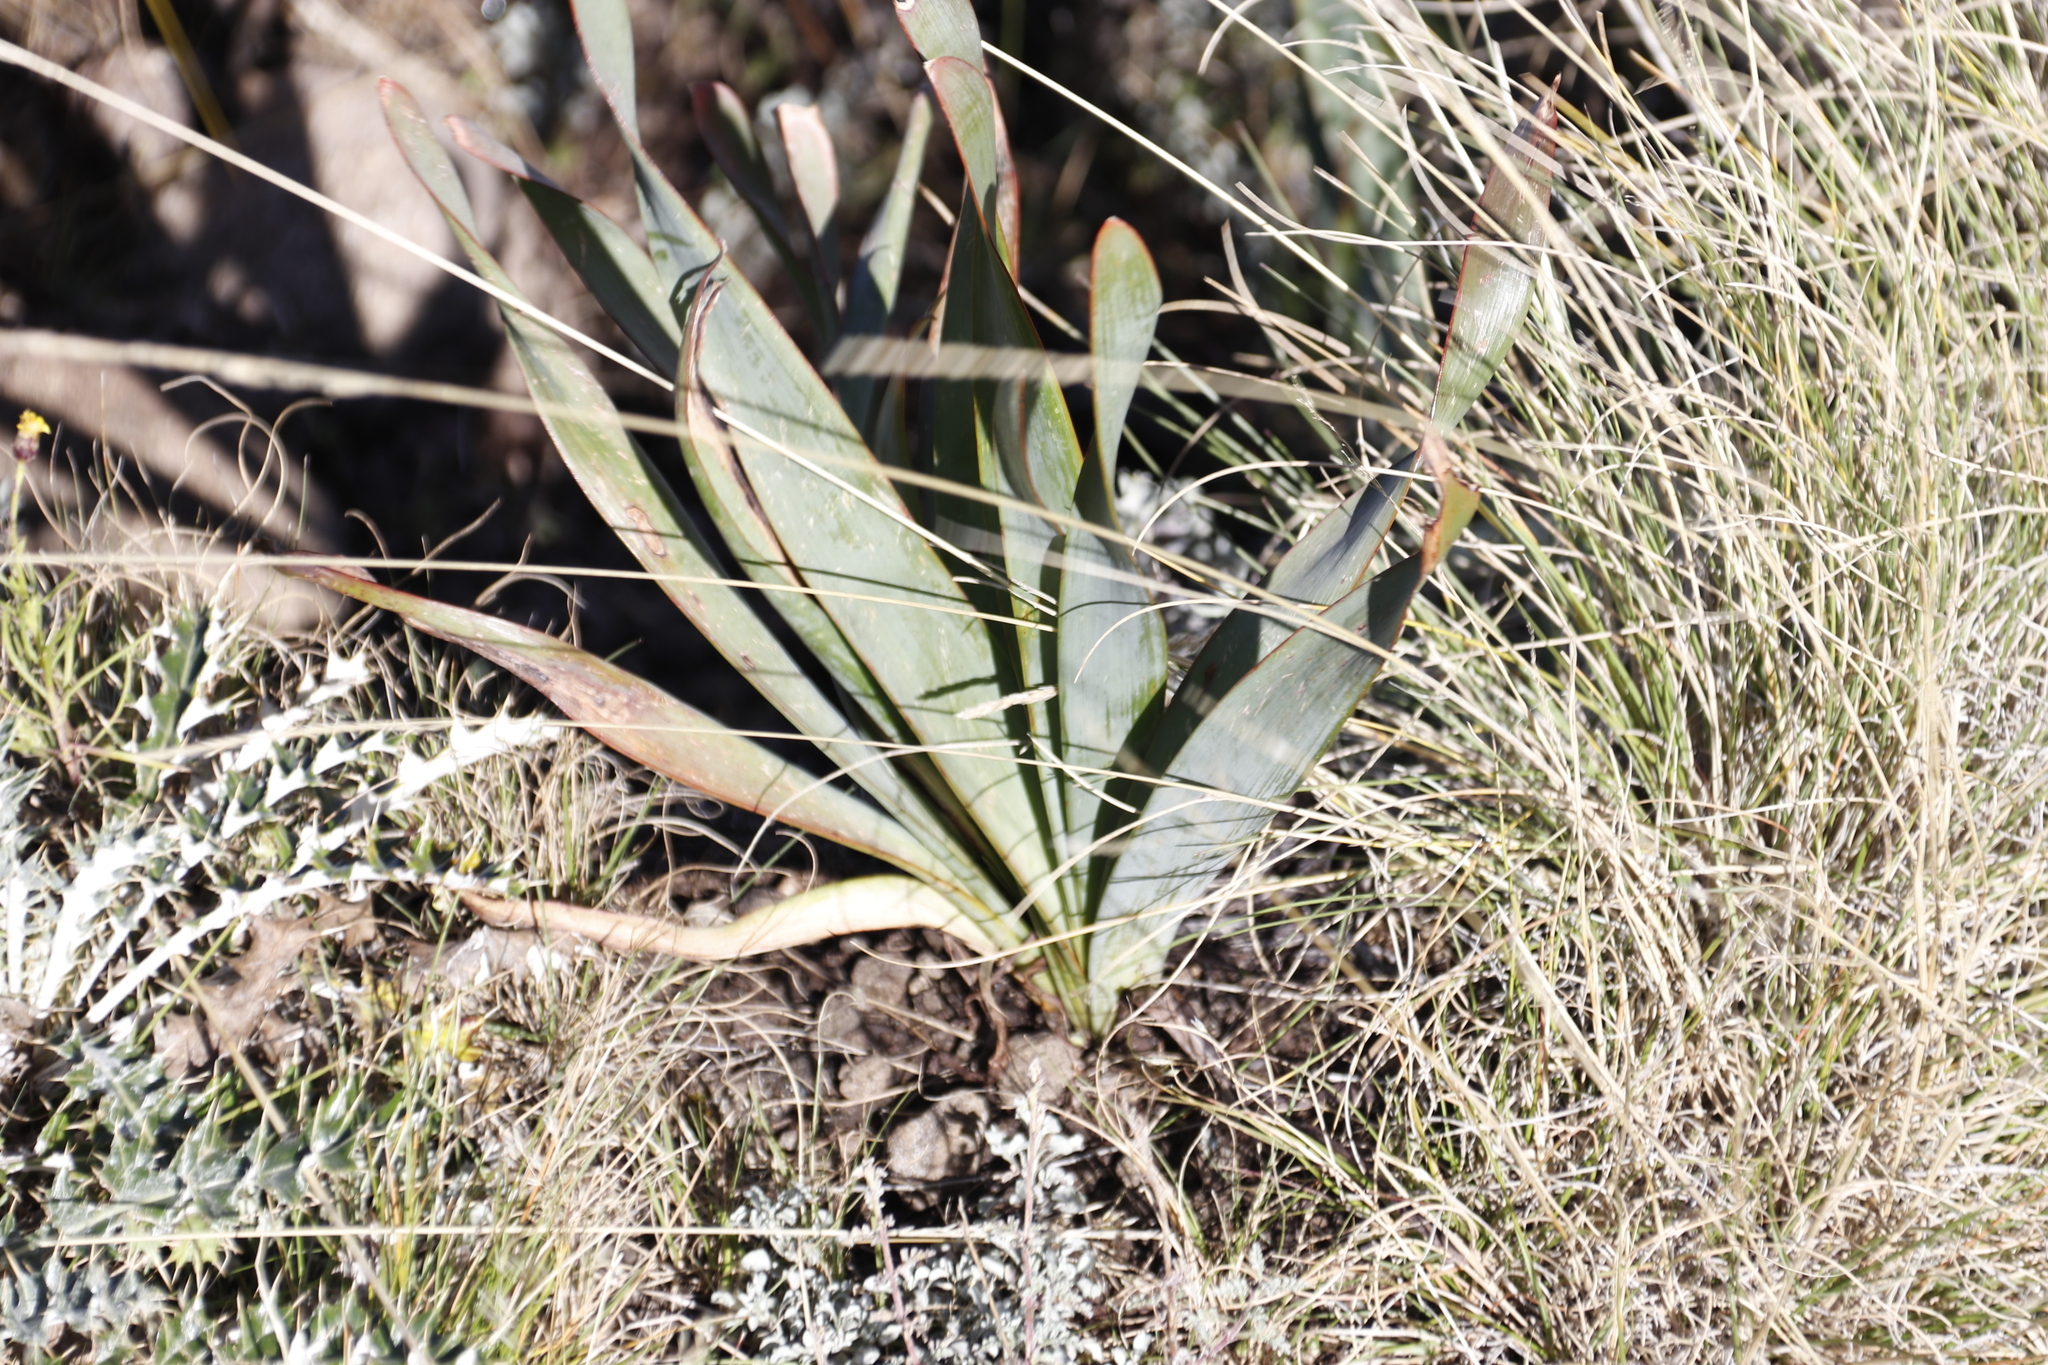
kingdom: Plantae
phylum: Tracheophyta
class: Liliopsida
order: Asparagales
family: Asphodelaceae
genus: Bulbine
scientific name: Bulbine narcissifolia
